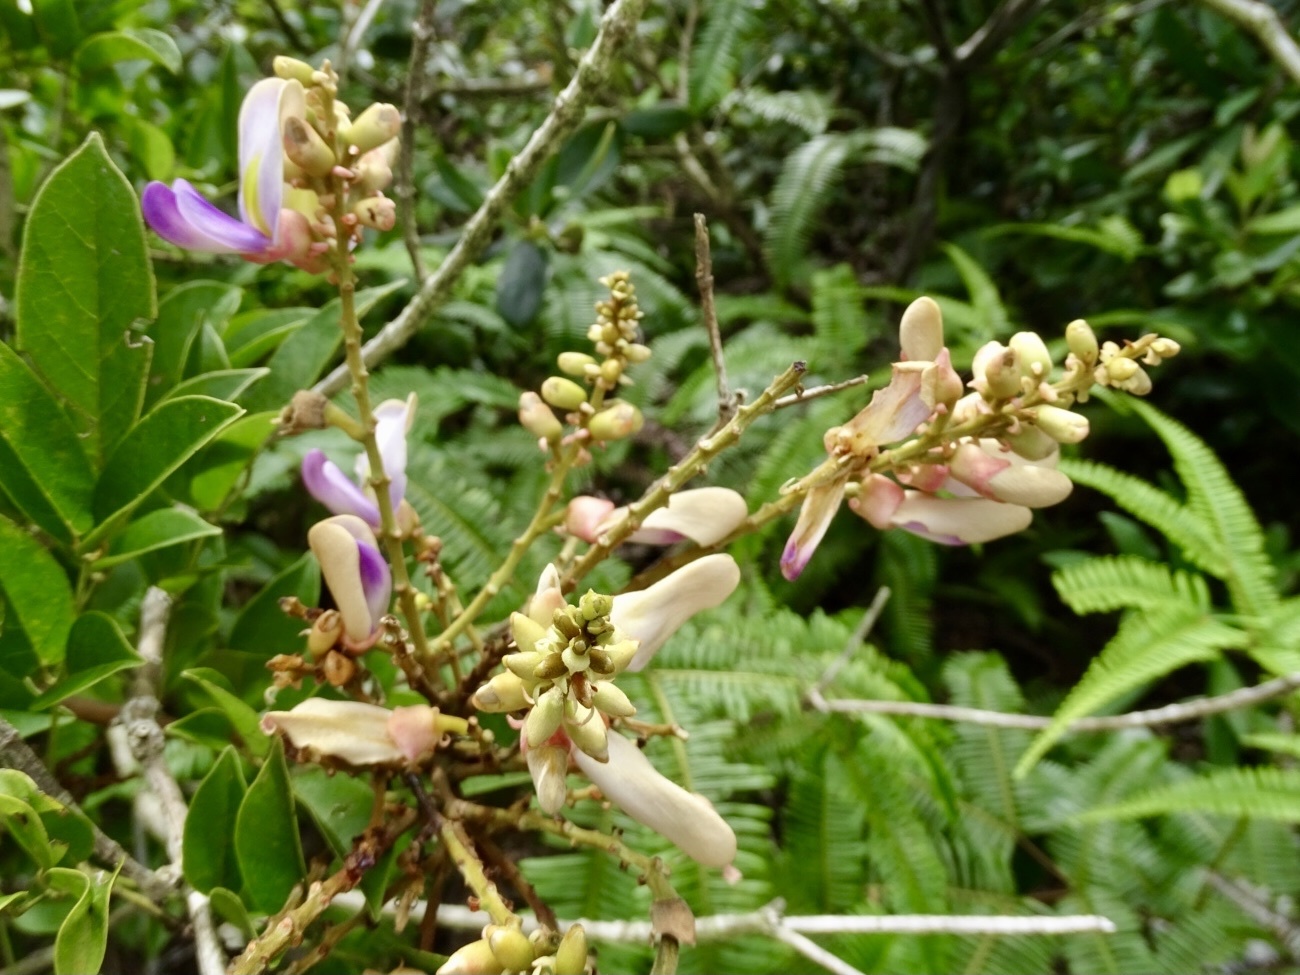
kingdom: Plantae
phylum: Tracheophyta
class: Magnoliopsida
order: Fabales
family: Fabaceae
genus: Callerya
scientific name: Callerya nitida
